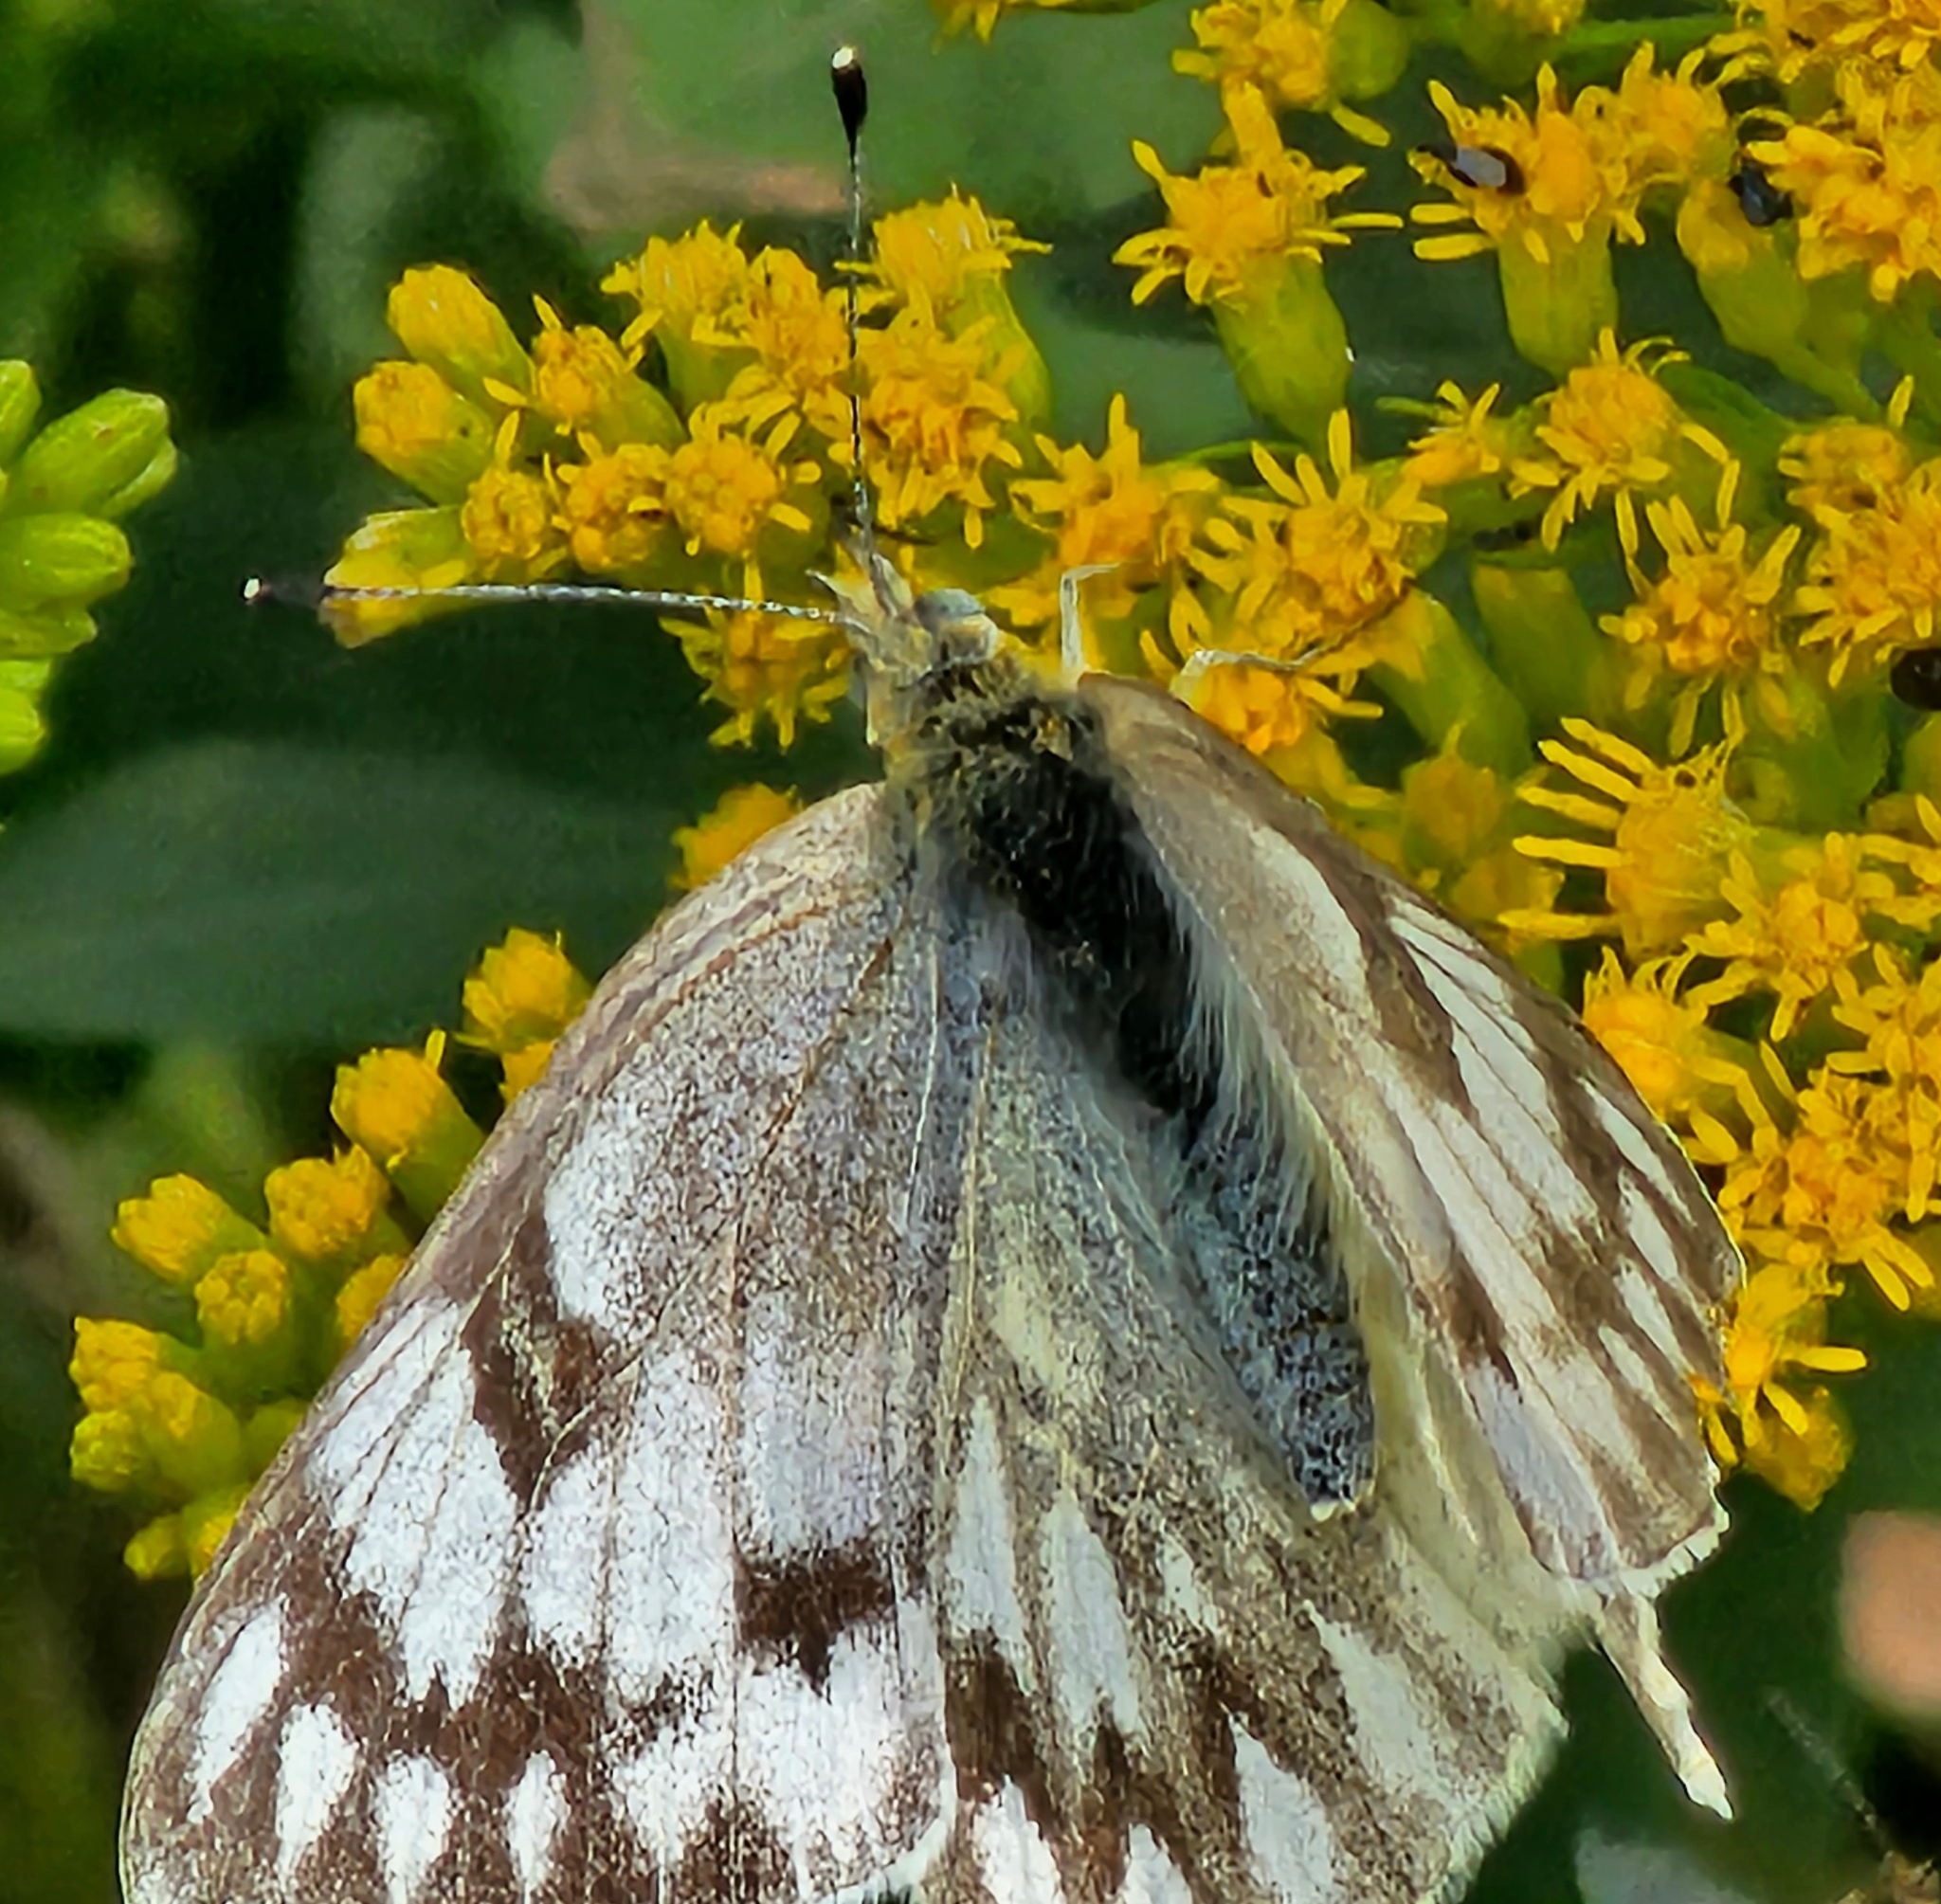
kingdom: Animalia
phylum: Arthropoda
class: Insecta
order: Lepidoptera
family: Pieridae
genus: Pontia
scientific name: Pontia occidentalis
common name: Western white
